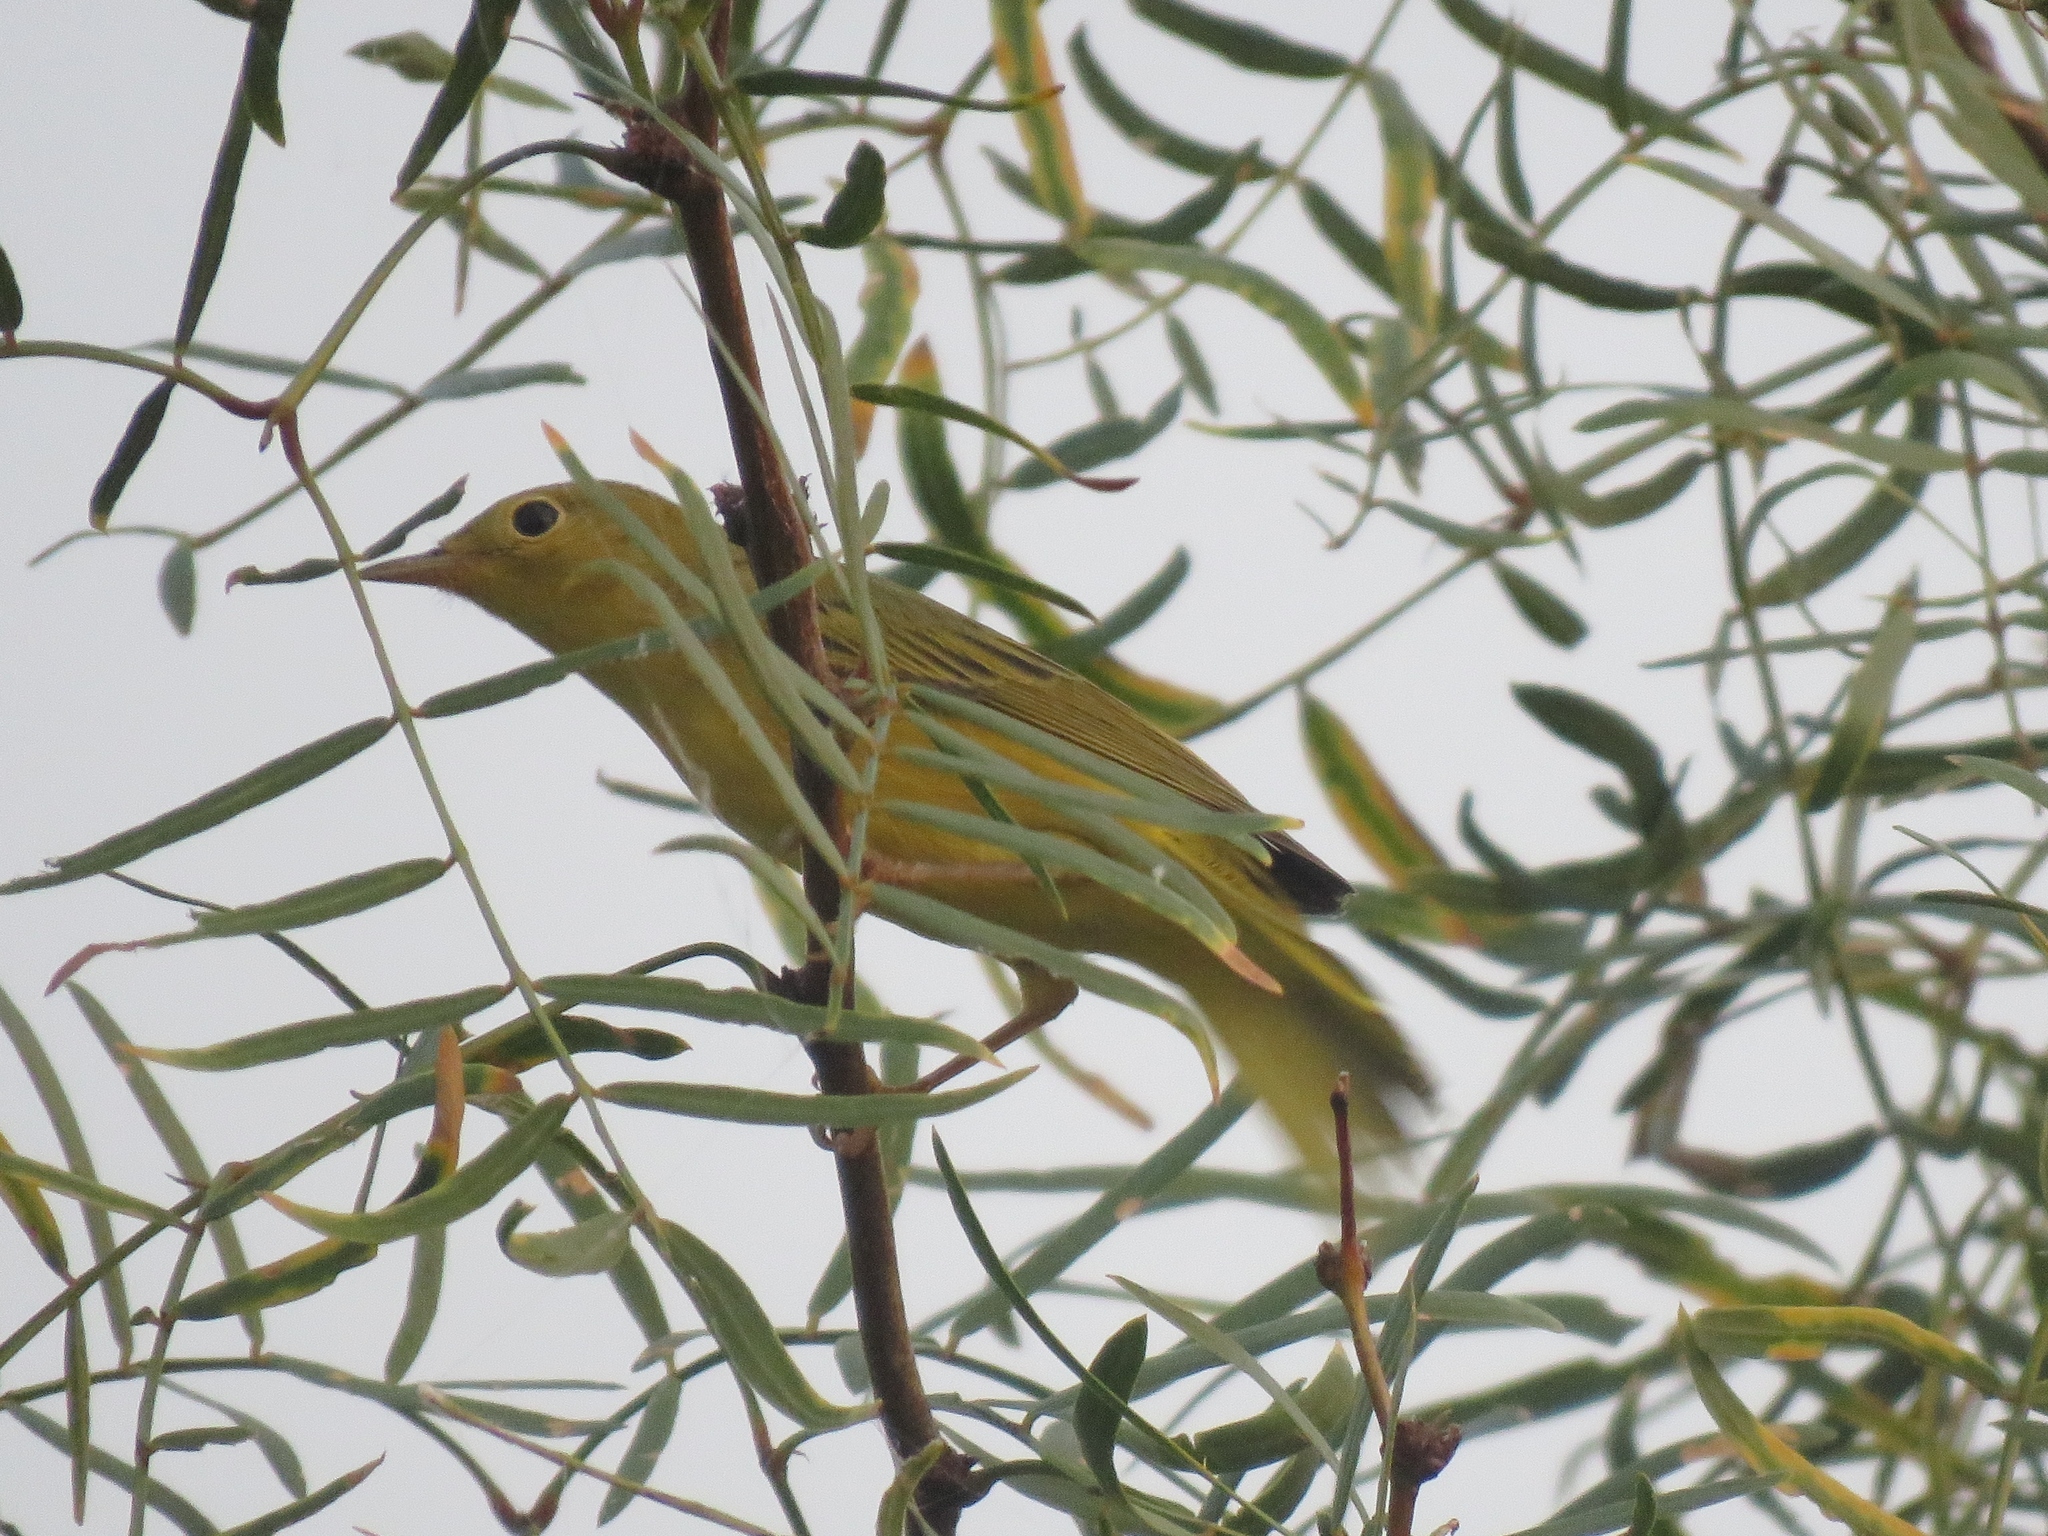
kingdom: Animalia
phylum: Chordata
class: Aves
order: Passeriformes
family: Parulidae
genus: Setophaga
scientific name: Setophaga petechia
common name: Yellow warbler
